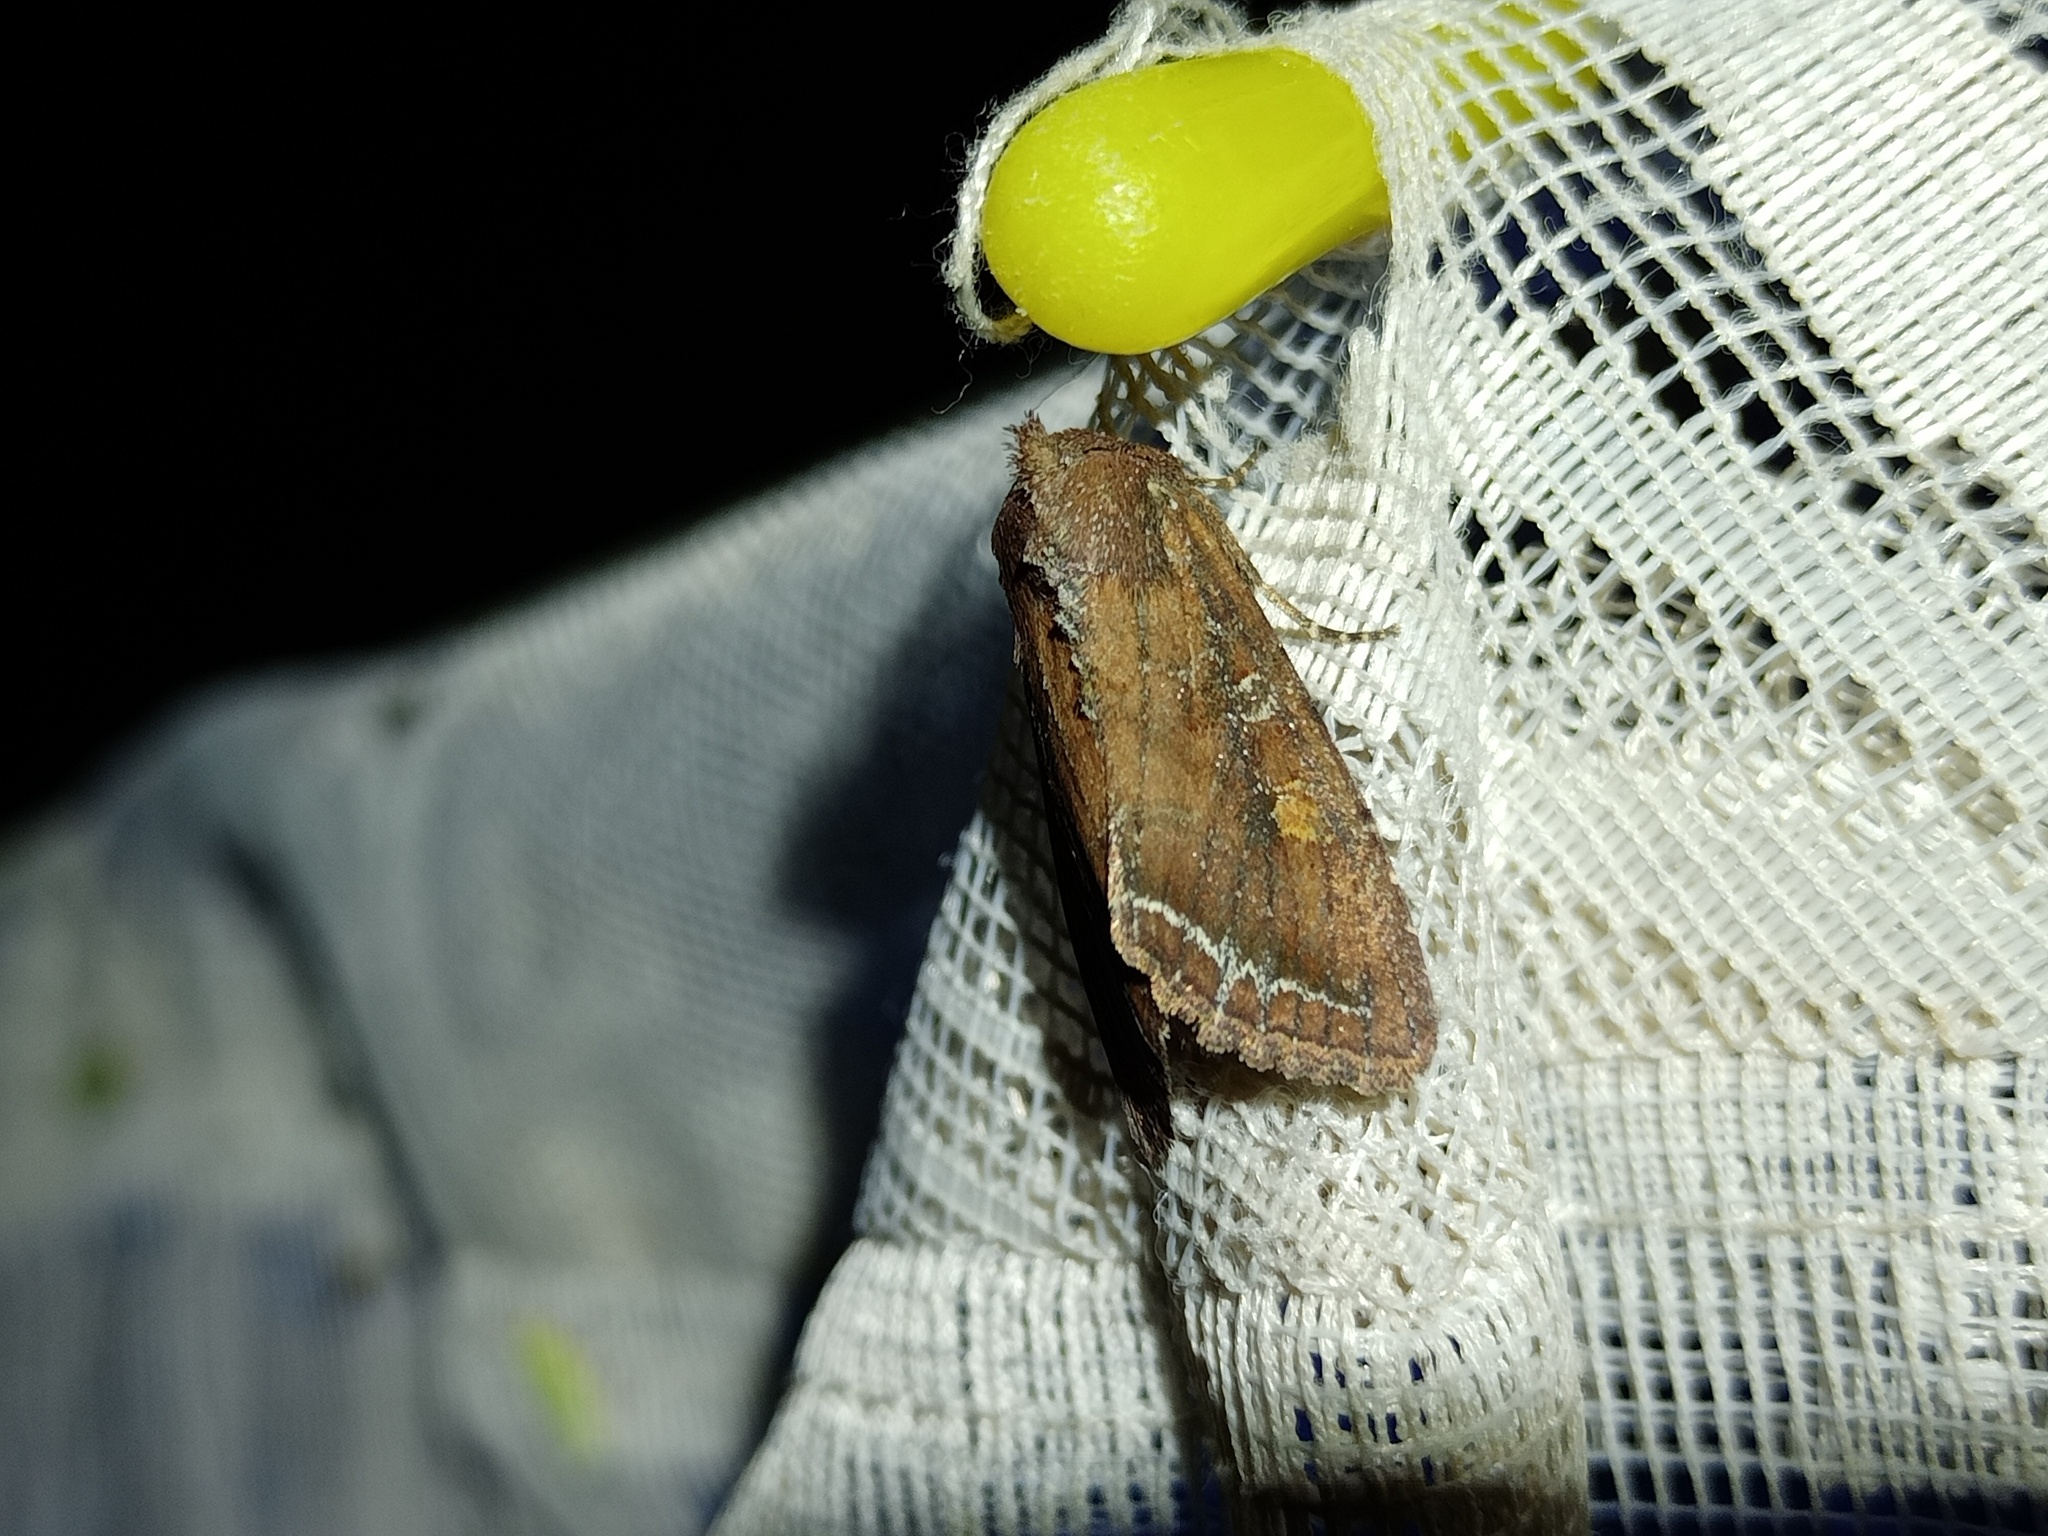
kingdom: Animalia
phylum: Arthropoda
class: Insecta
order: Lepidoptera
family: Noctuidae
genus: Lacanobia
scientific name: Lacanobia oleracea
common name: Bright-line brown-eye
